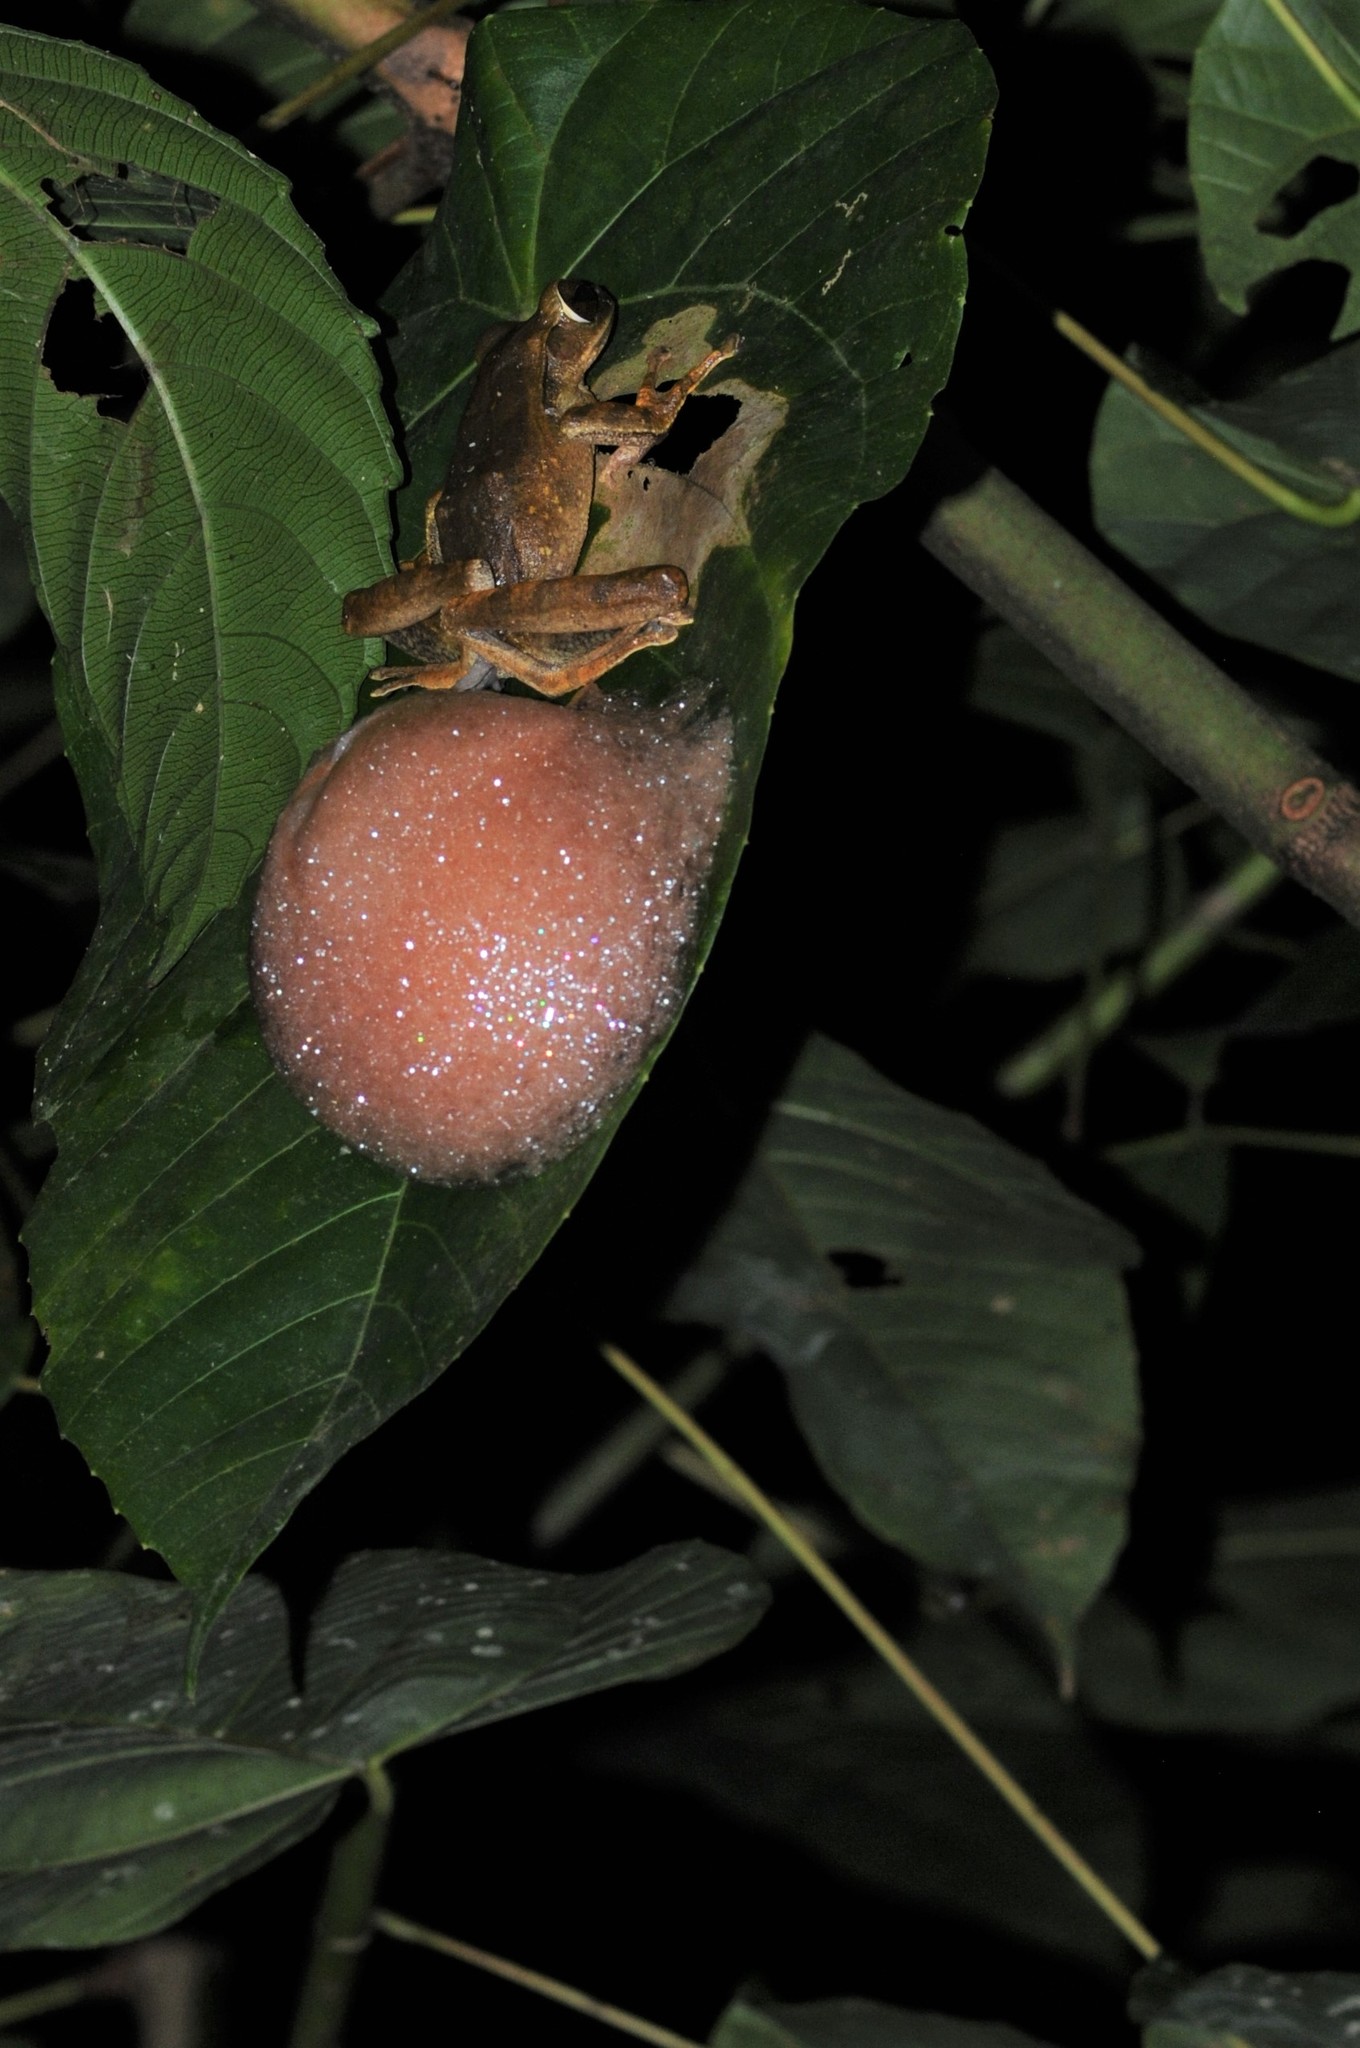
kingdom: Animalia
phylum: Chordata
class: Amphibia
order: Anura
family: Rhacophoridae
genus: Polypedates
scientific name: Polypedates leucomystax
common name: Common tree frog/four-lined tree frog
